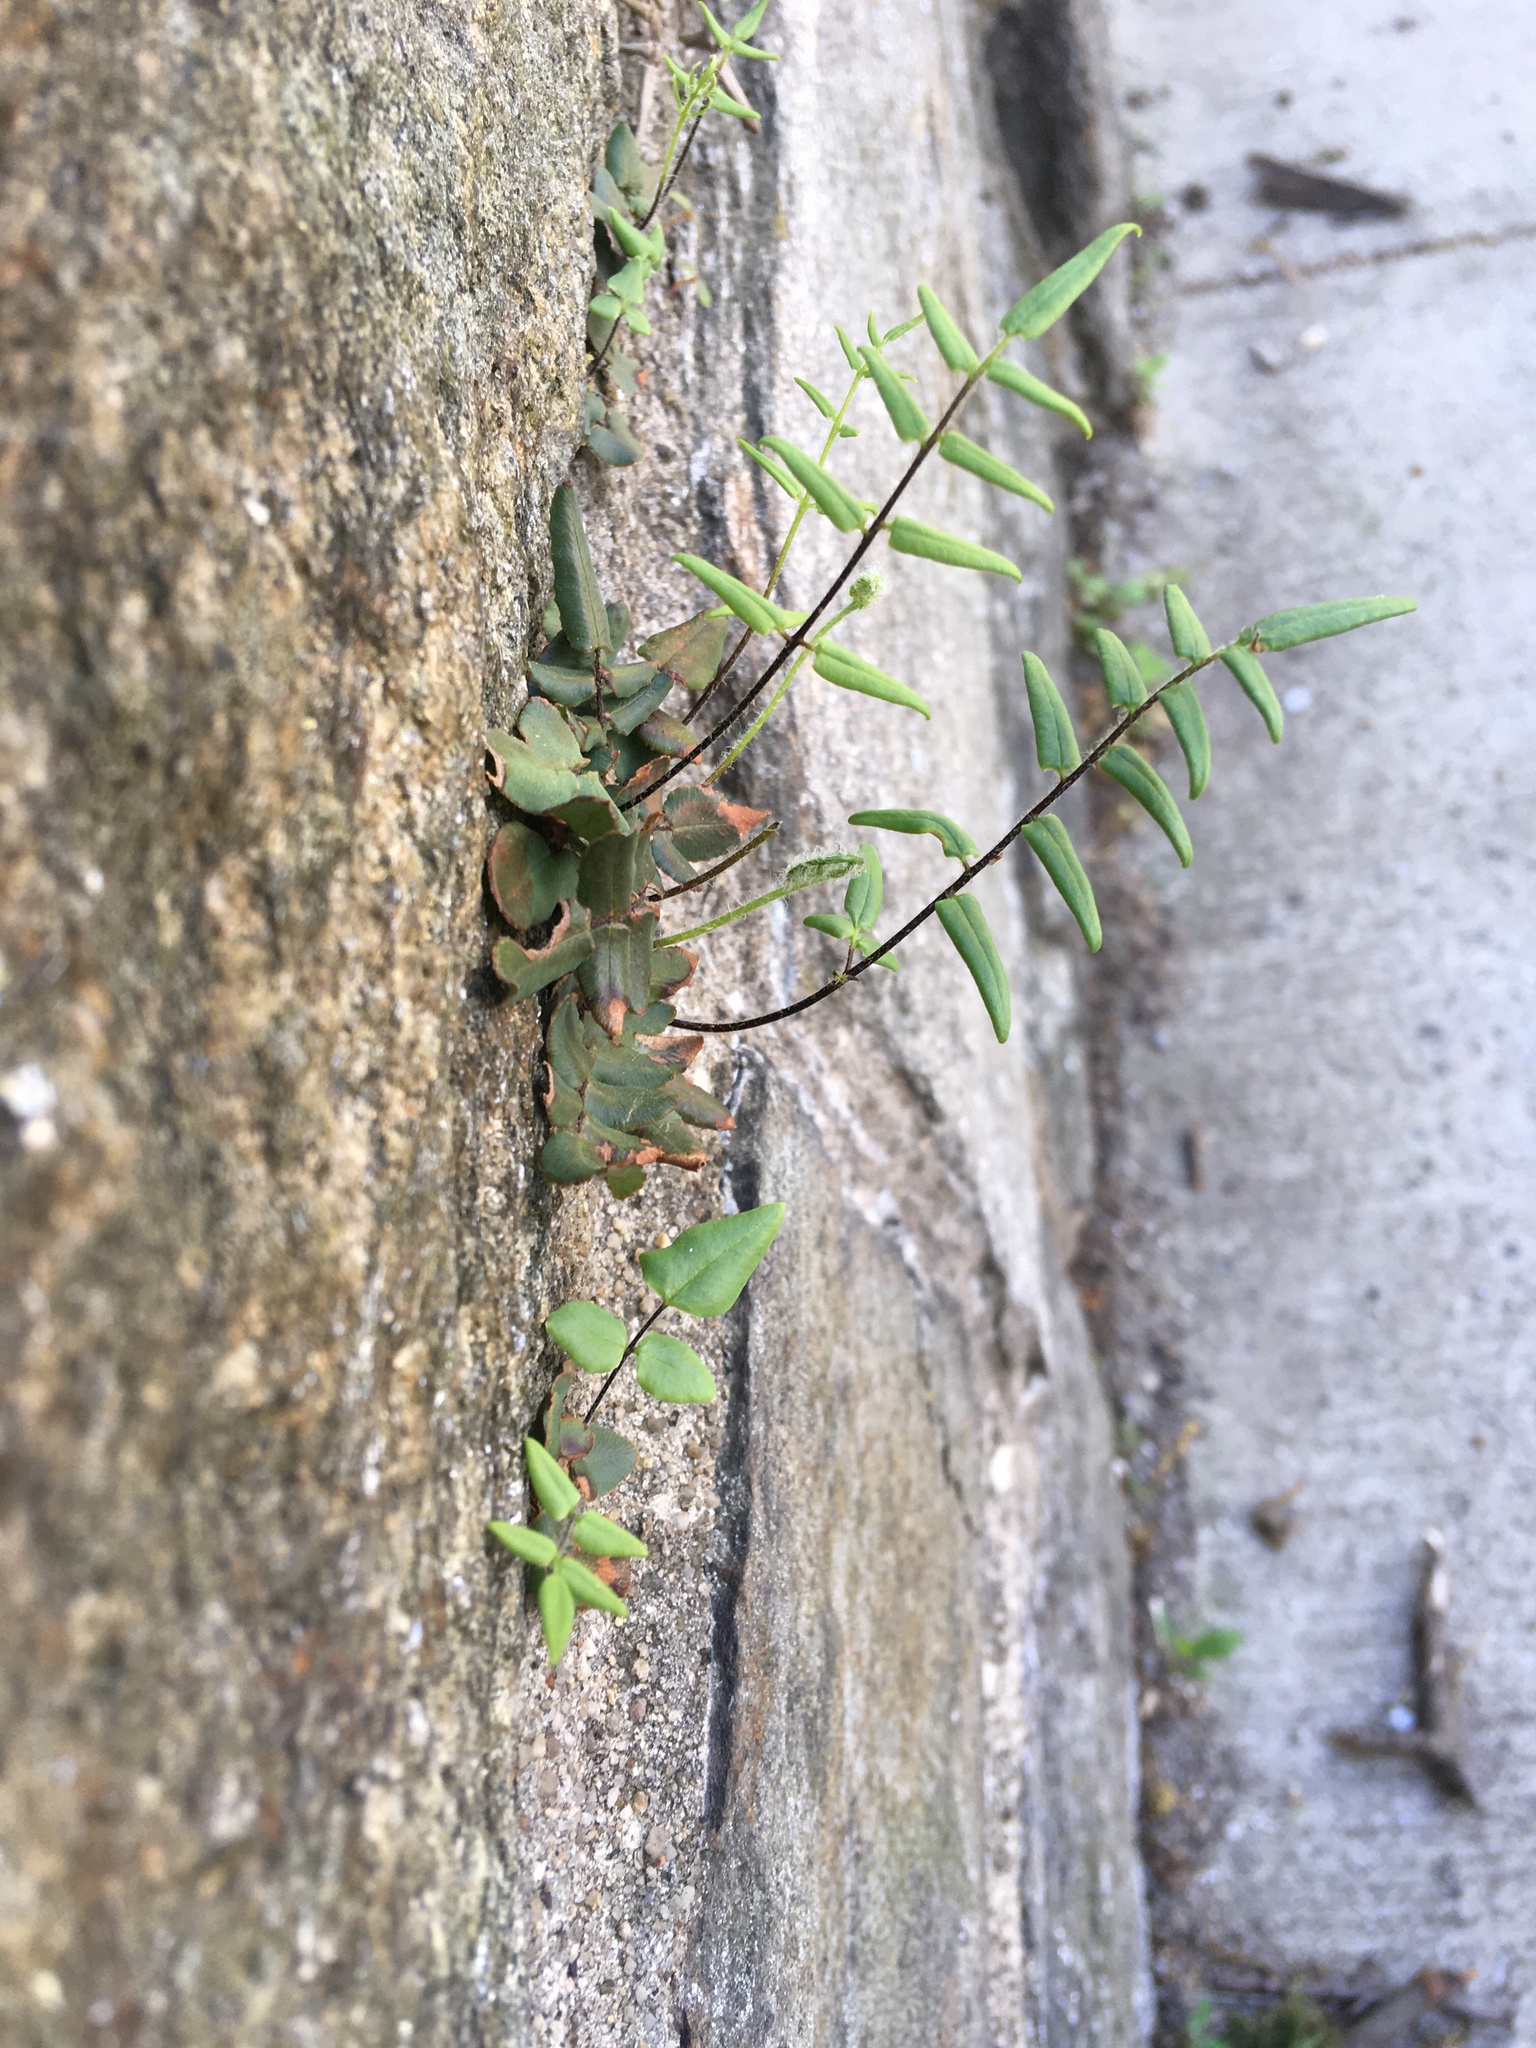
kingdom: Plantae
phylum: Tracheophyta
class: Polypodiopsida
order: Polypodiales
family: Pteridaceae
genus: Pellaea
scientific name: Pellaea atropurpurea
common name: Hairy cliffbrake
